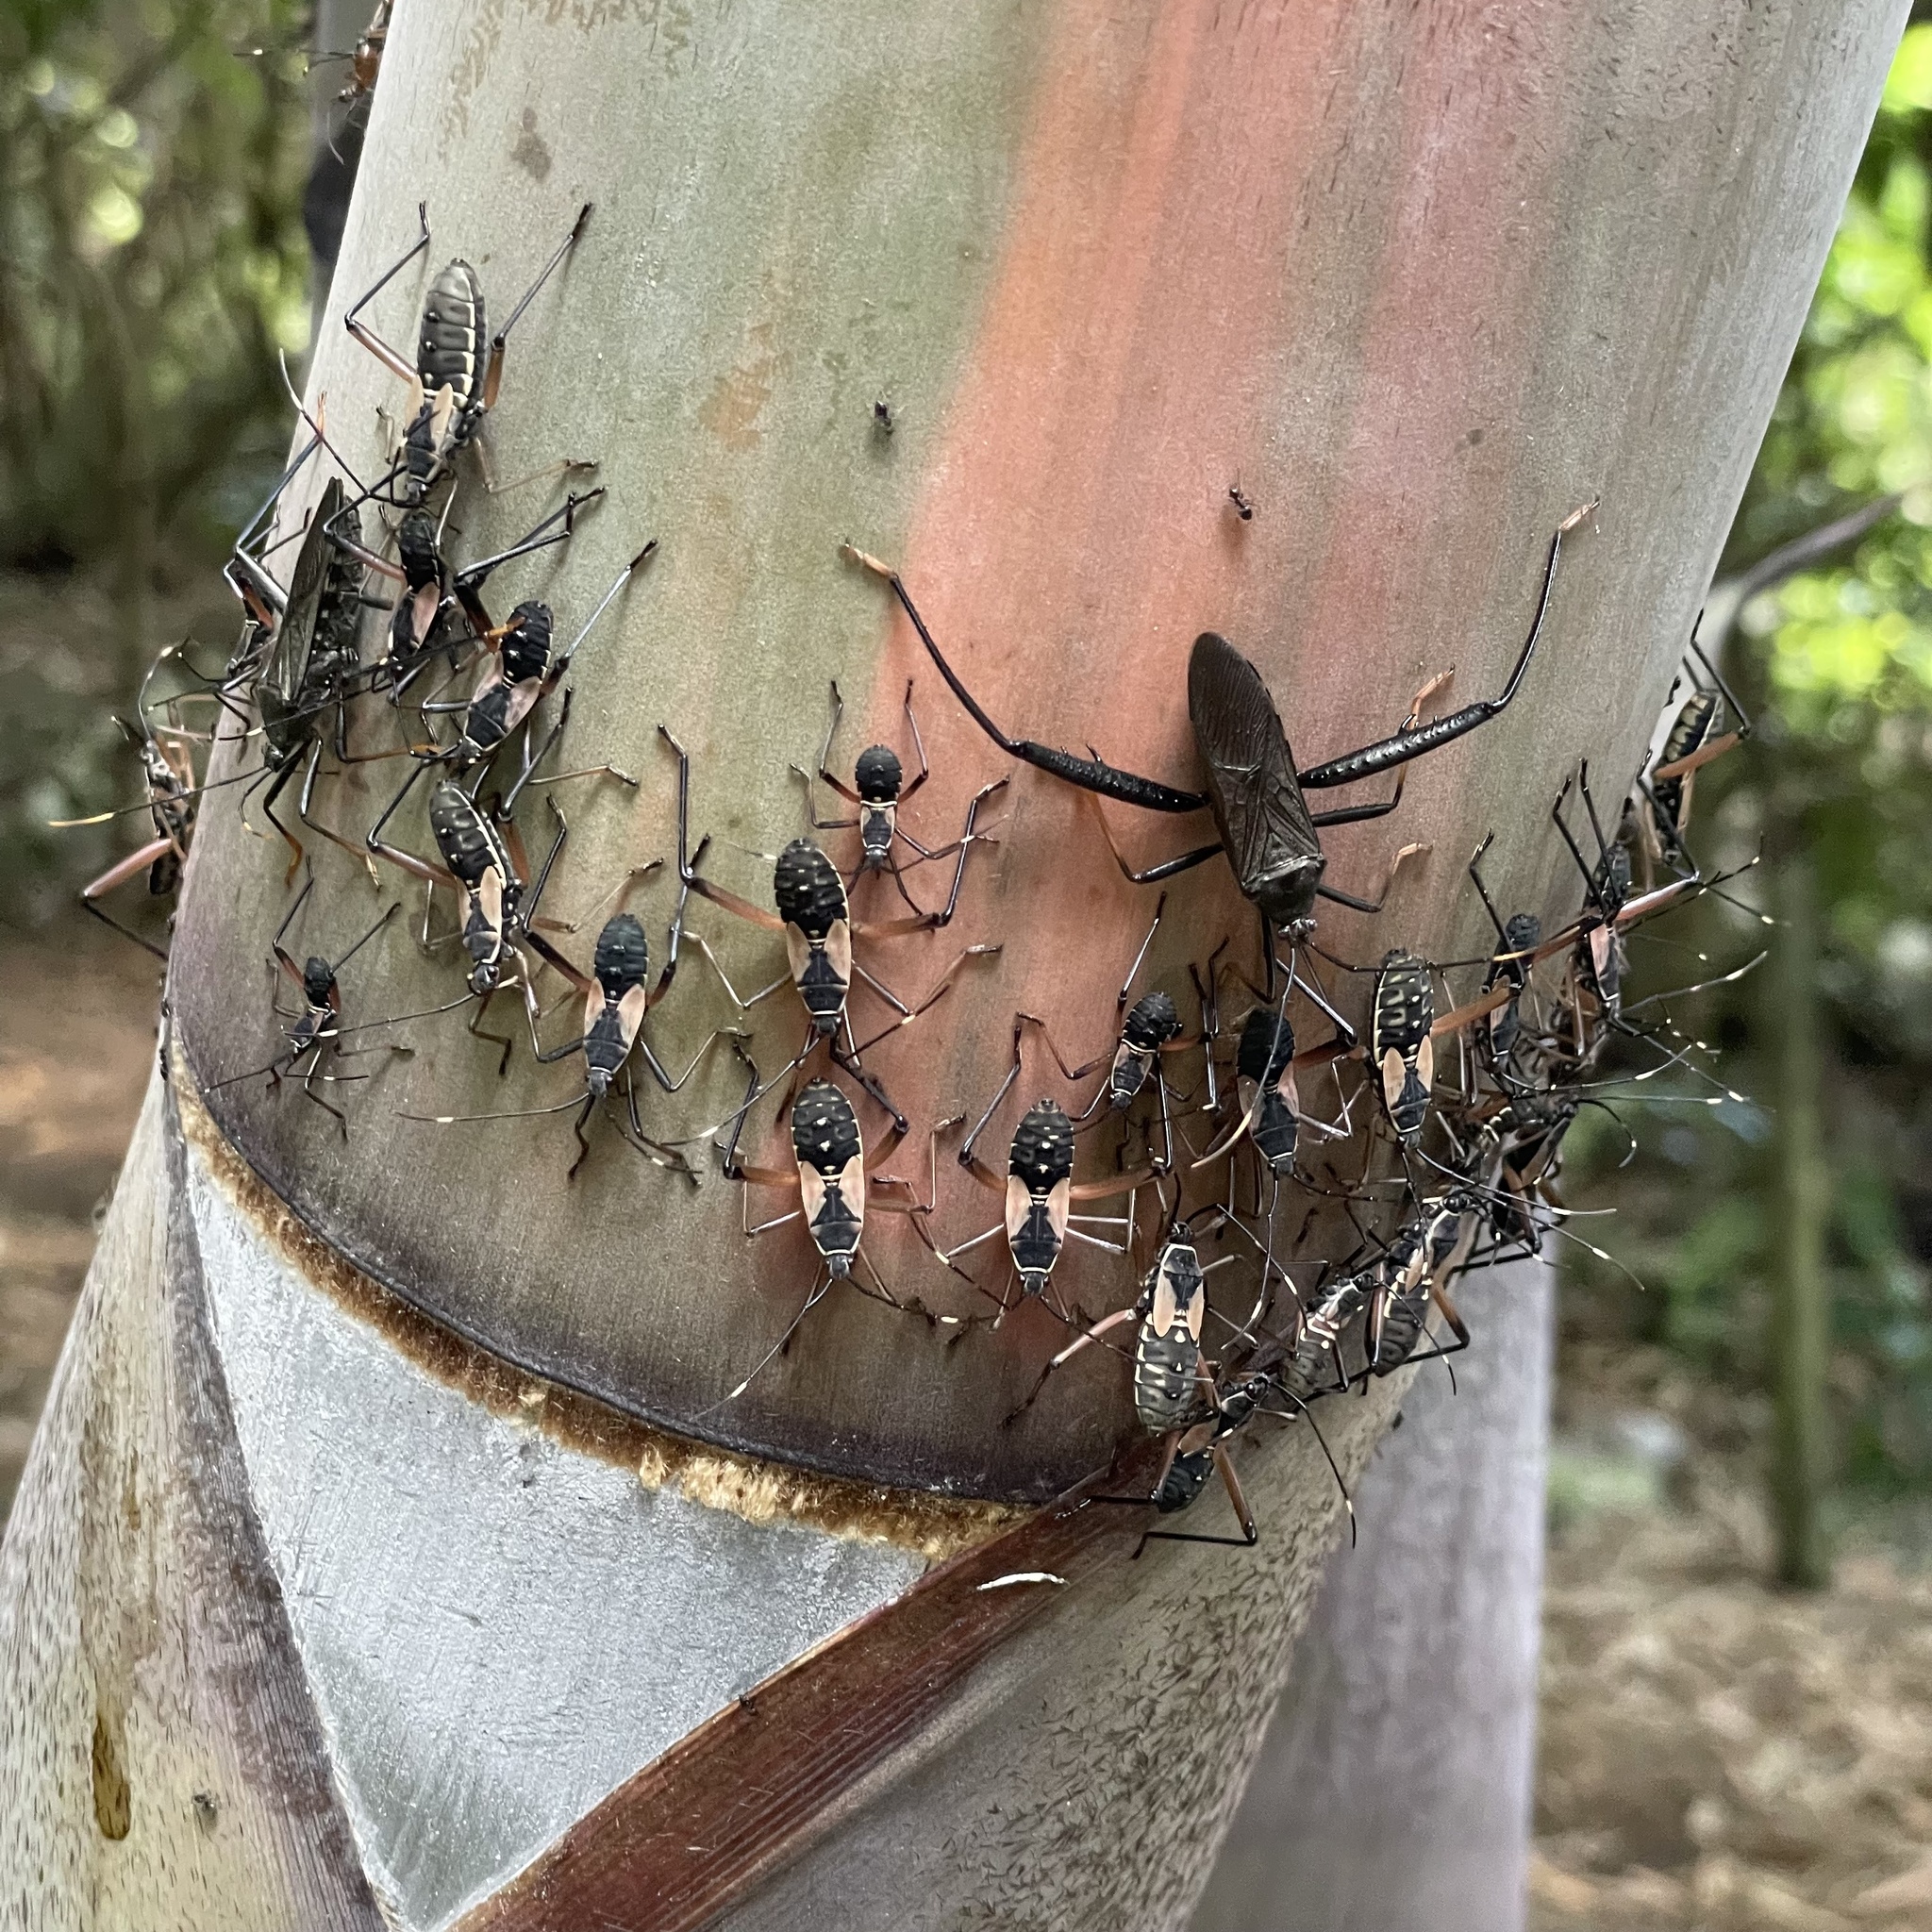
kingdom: Animalia
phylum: Arthropoda
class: Insecta
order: Hemiptera
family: Coreidae
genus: Notobitus
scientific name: Notobitus meleagris
